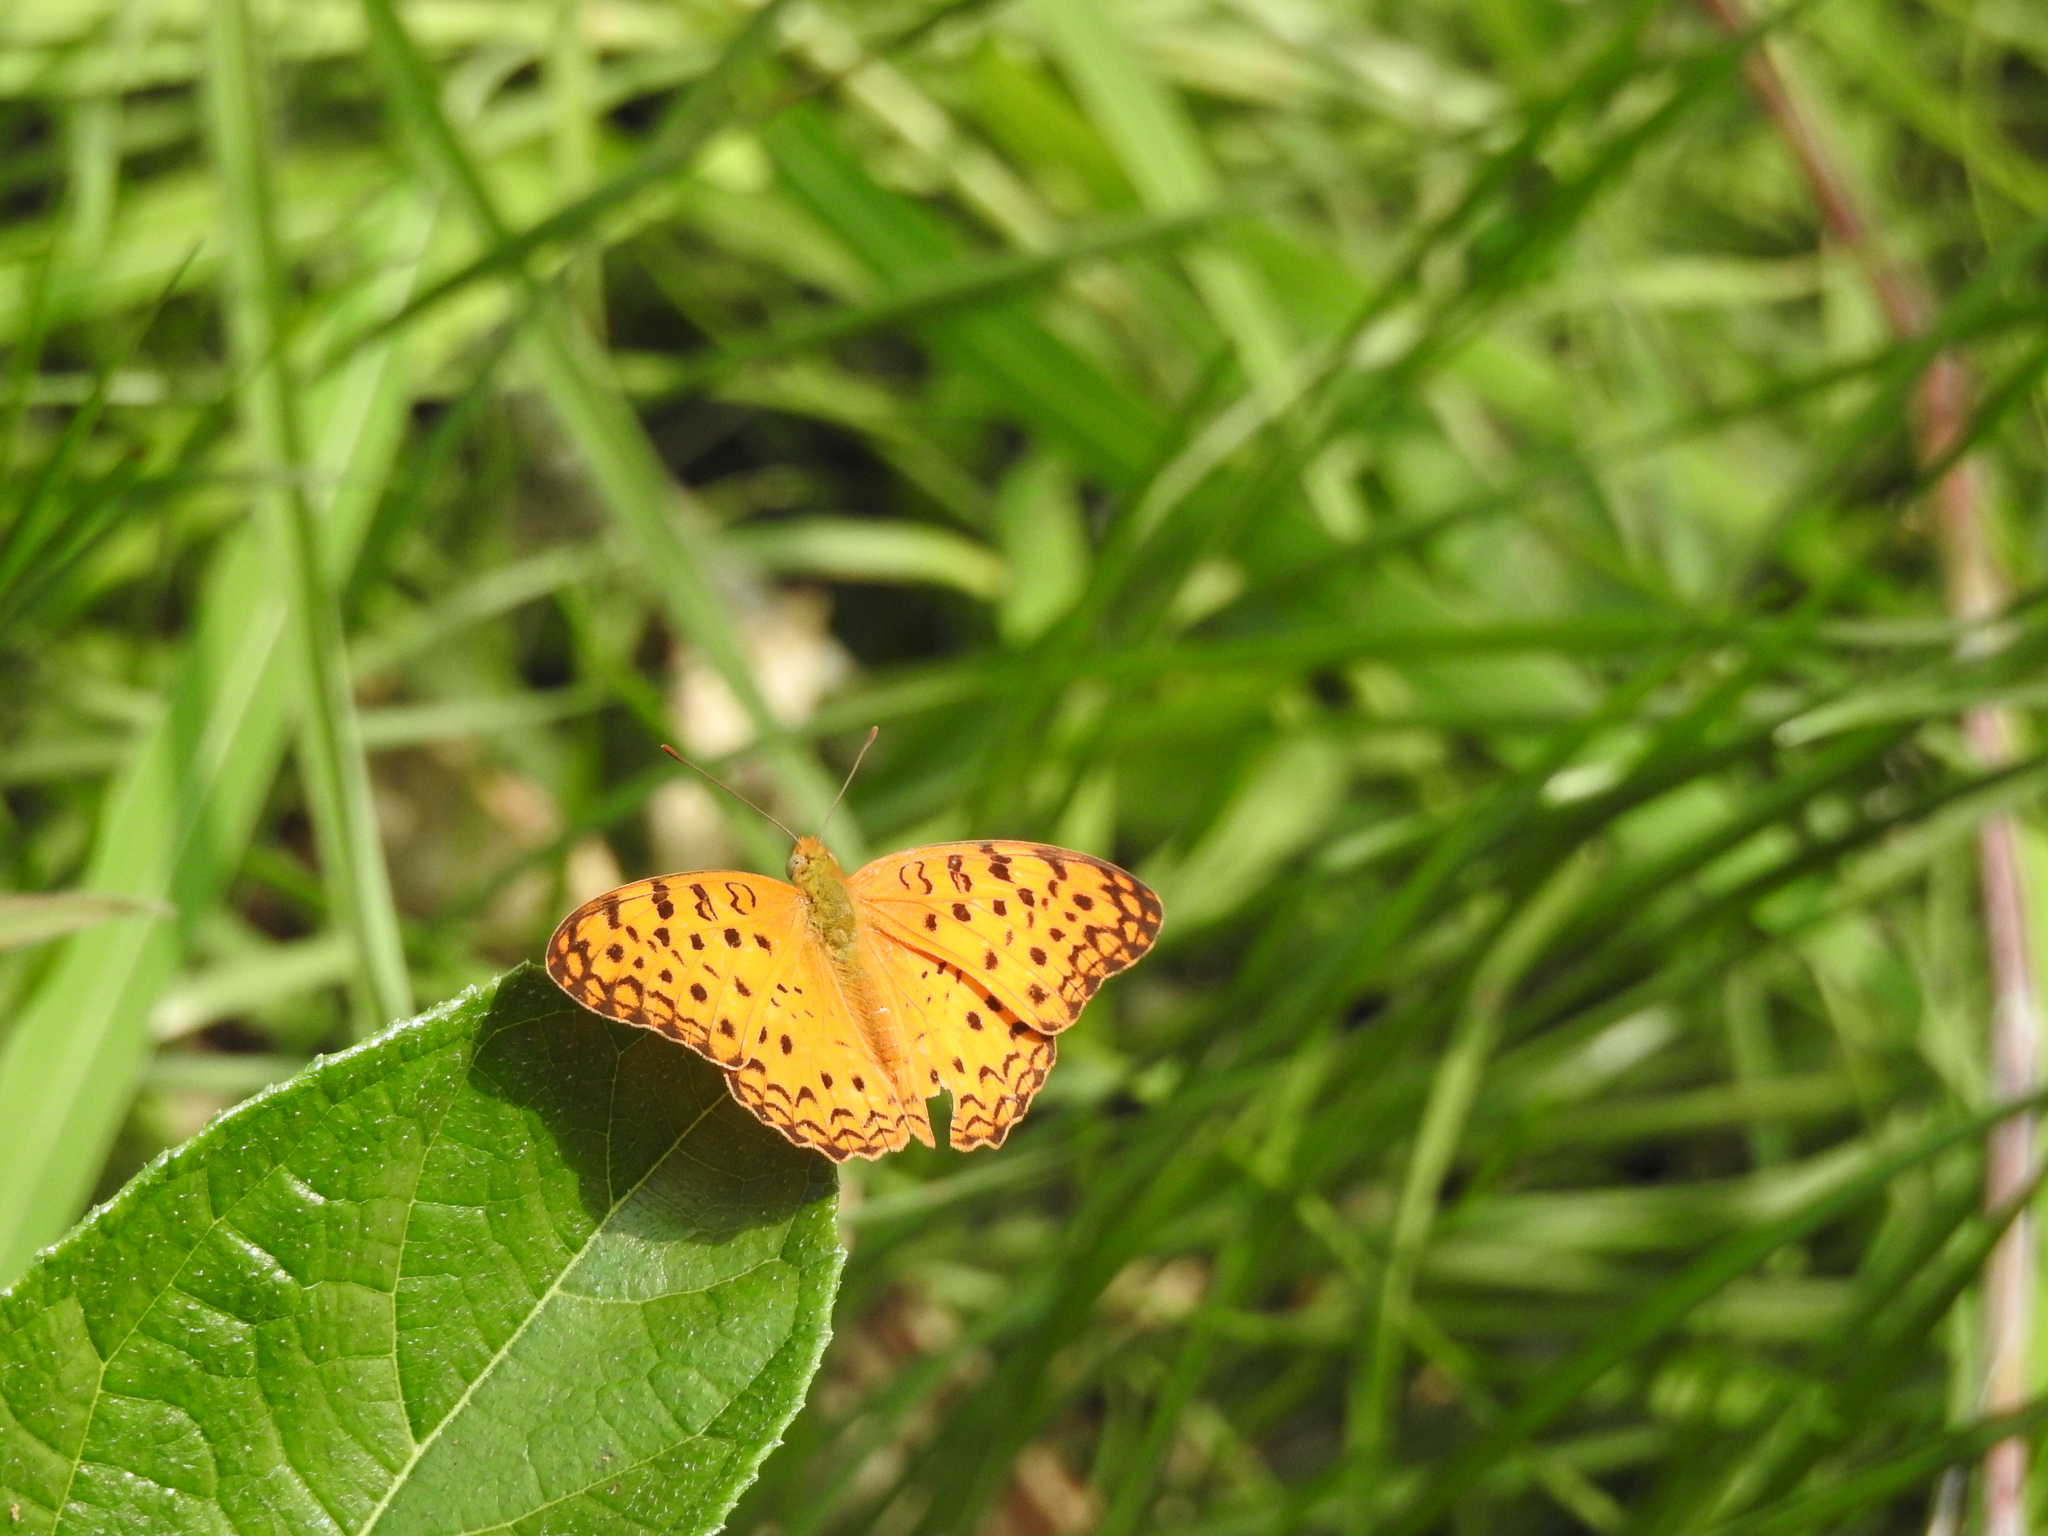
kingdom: Animalia
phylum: Arthropoda
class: Insecta
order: Lepidoptera
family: Nymphalidae
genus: Phalanta
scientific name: Phalanta phalantha
